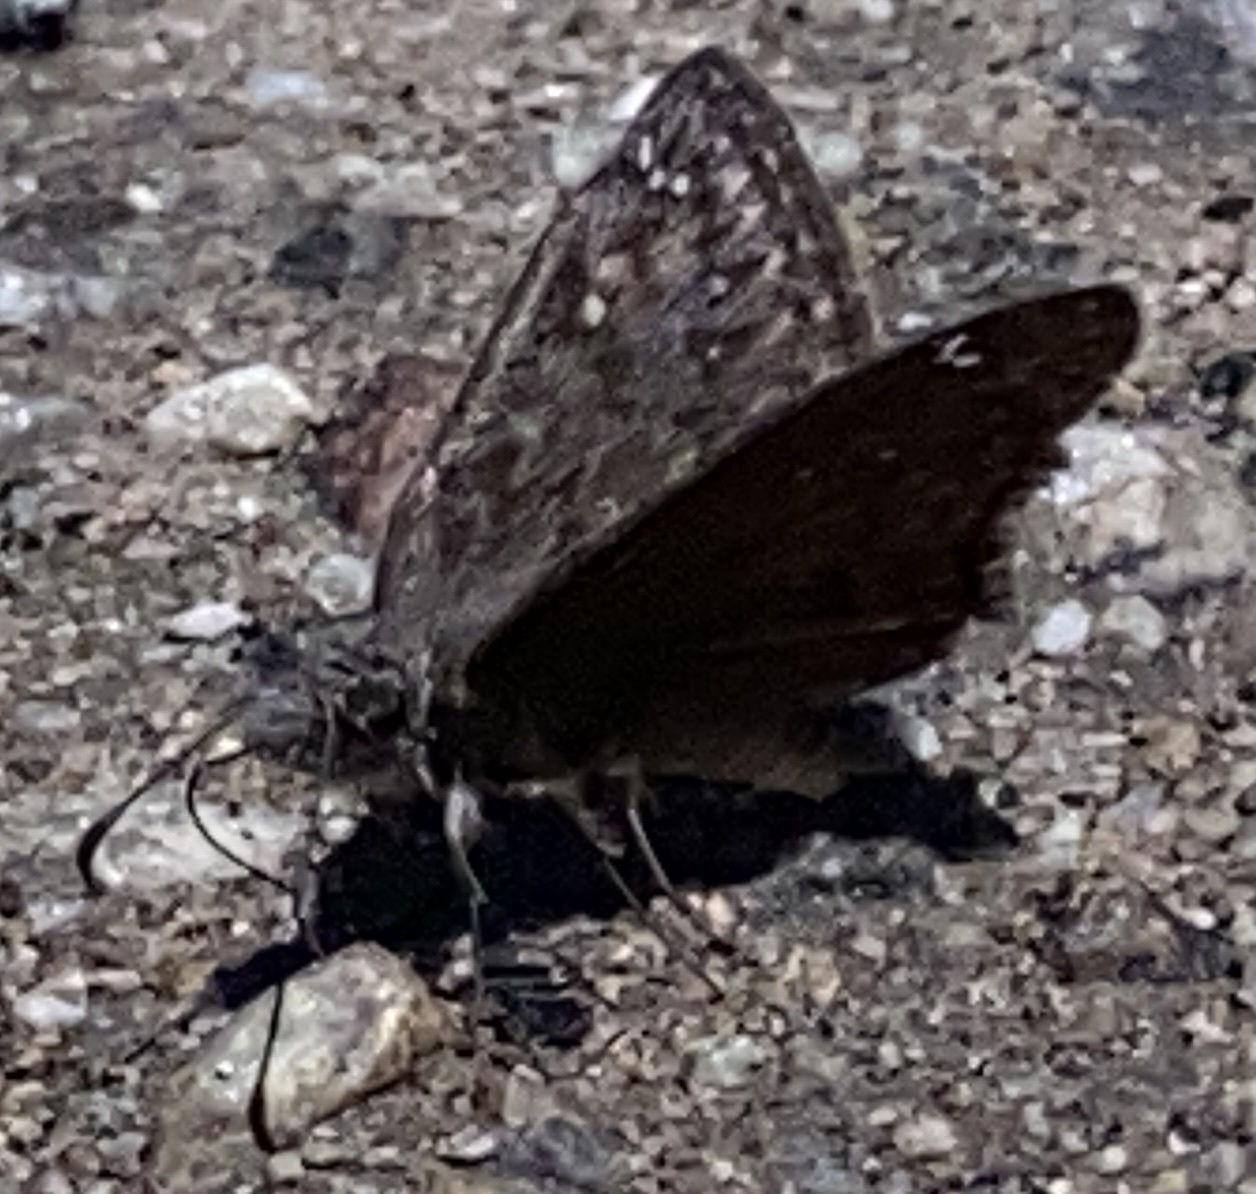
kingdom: Animalia
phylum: Arthropoda
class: Insecta
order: Lepidoptera
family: Hesperiidae
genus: Erynnis
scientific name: Erynnis propertius
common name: Propertius duskywing
